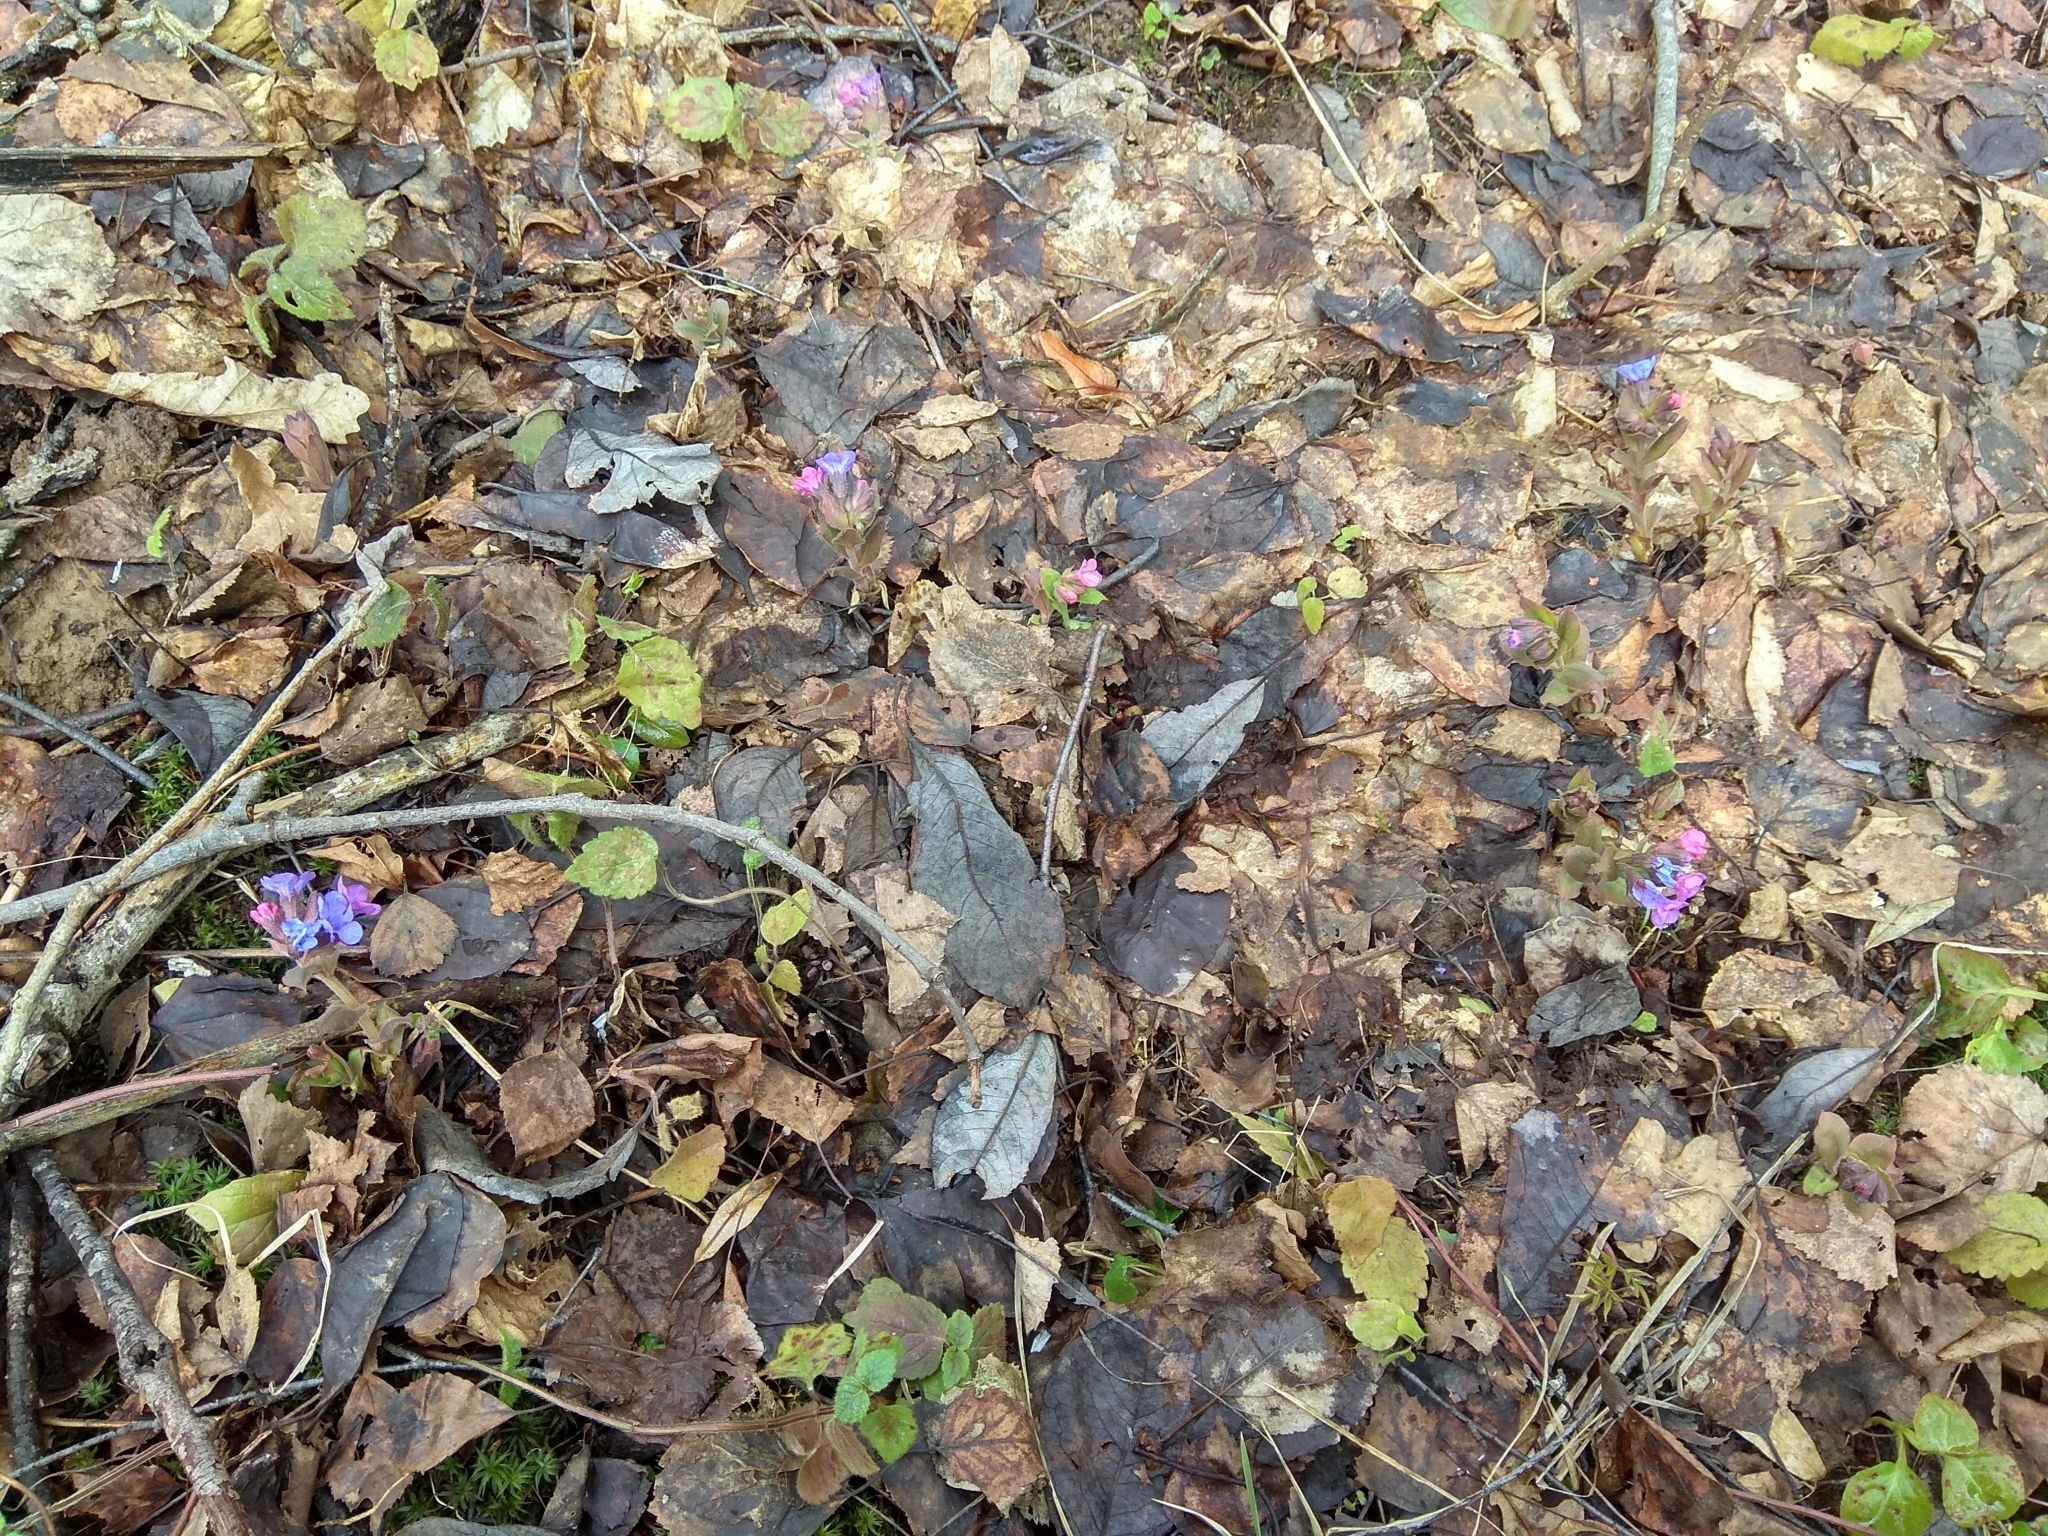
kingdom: Plantae
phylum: Tracheophyta
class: Magnoliopsida
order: Boraginales
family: Boraginaceae
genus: Pulmonaria
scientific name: Pulmonaria obscura
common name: Suffolk lungwort
